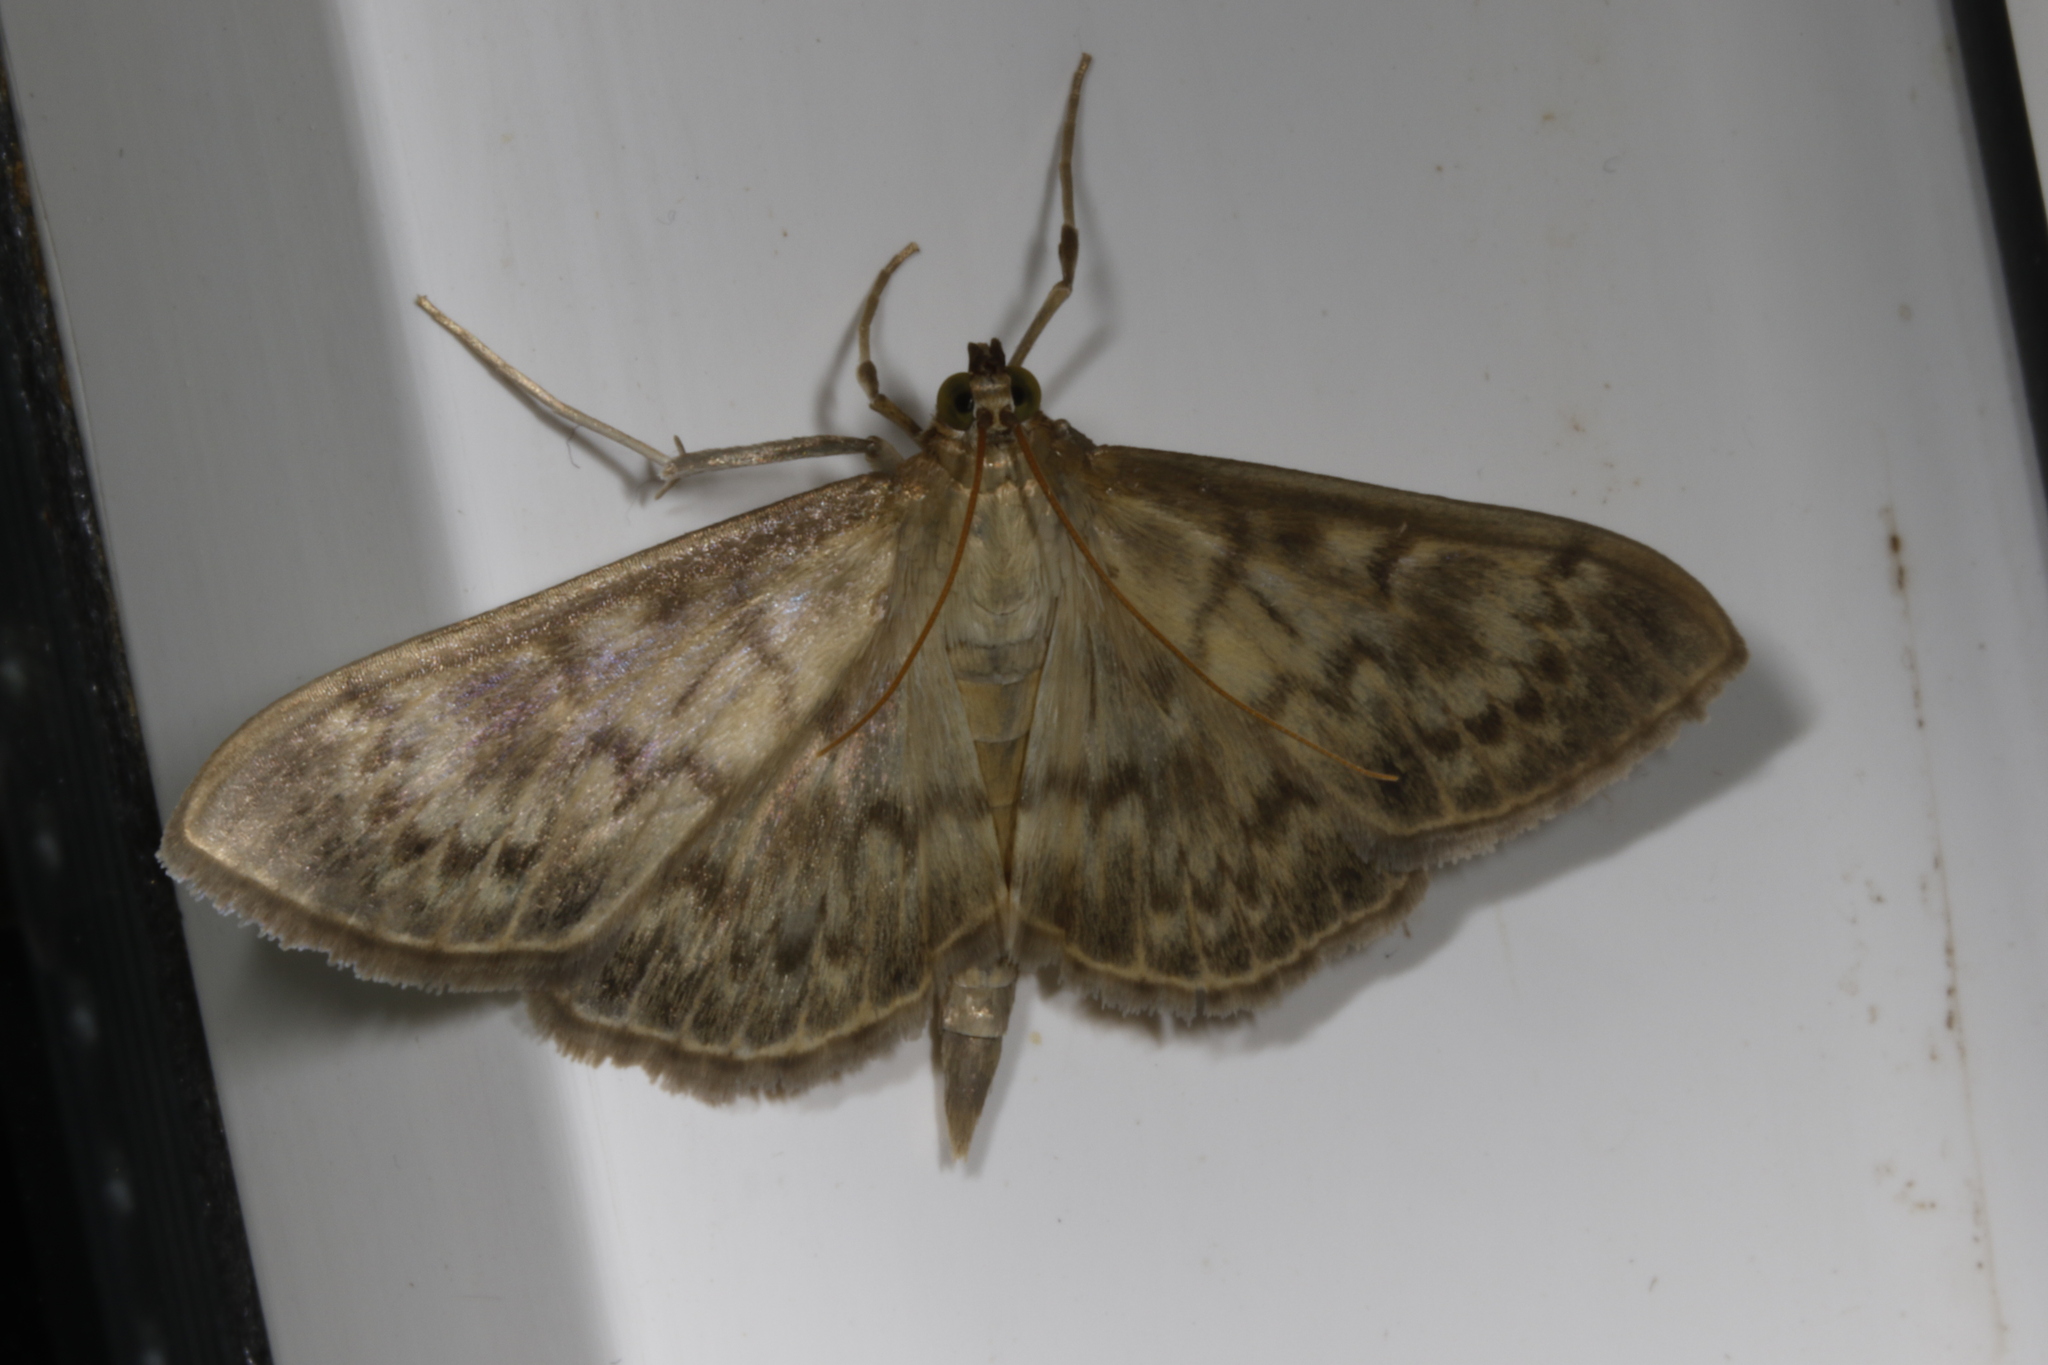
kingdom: Animalia
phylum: Arthropoda
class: Insecta
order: Lepidoptera
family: Crambidae
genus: Patania
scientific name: Patania ruralis
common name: Mother of pearl
